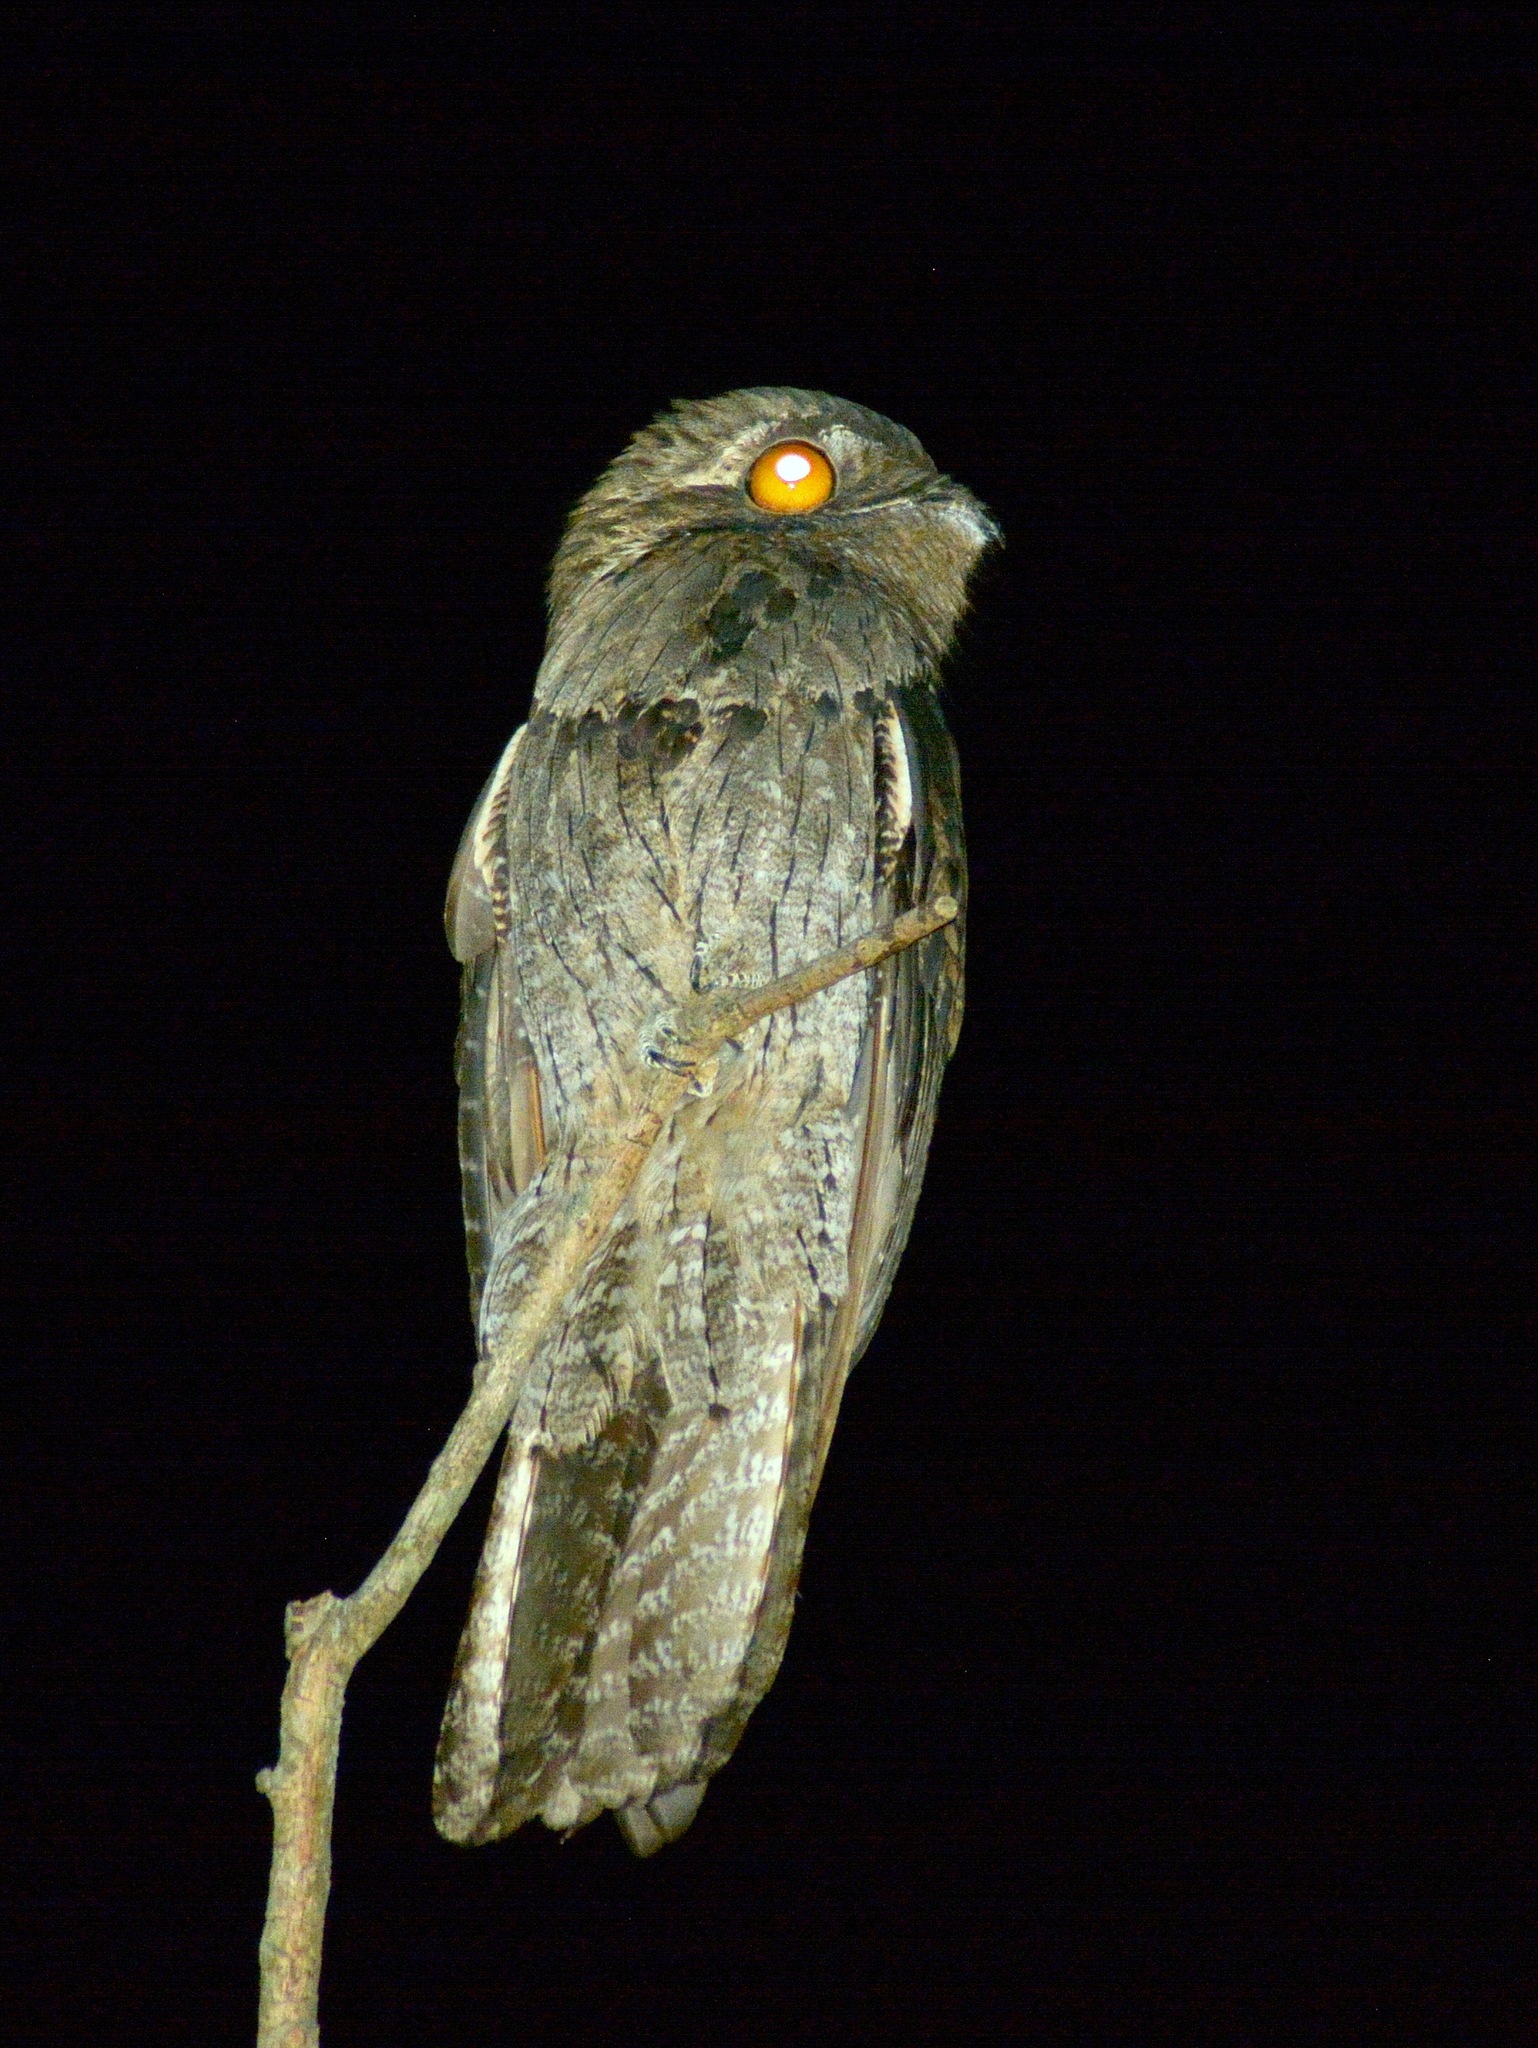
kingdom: Animalia
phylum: Chordata
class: Aves
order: Nyctibiiformes
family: Nyctibiidae
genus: Nyctibius
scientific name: Nyctibius griseus
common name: Common potoo
